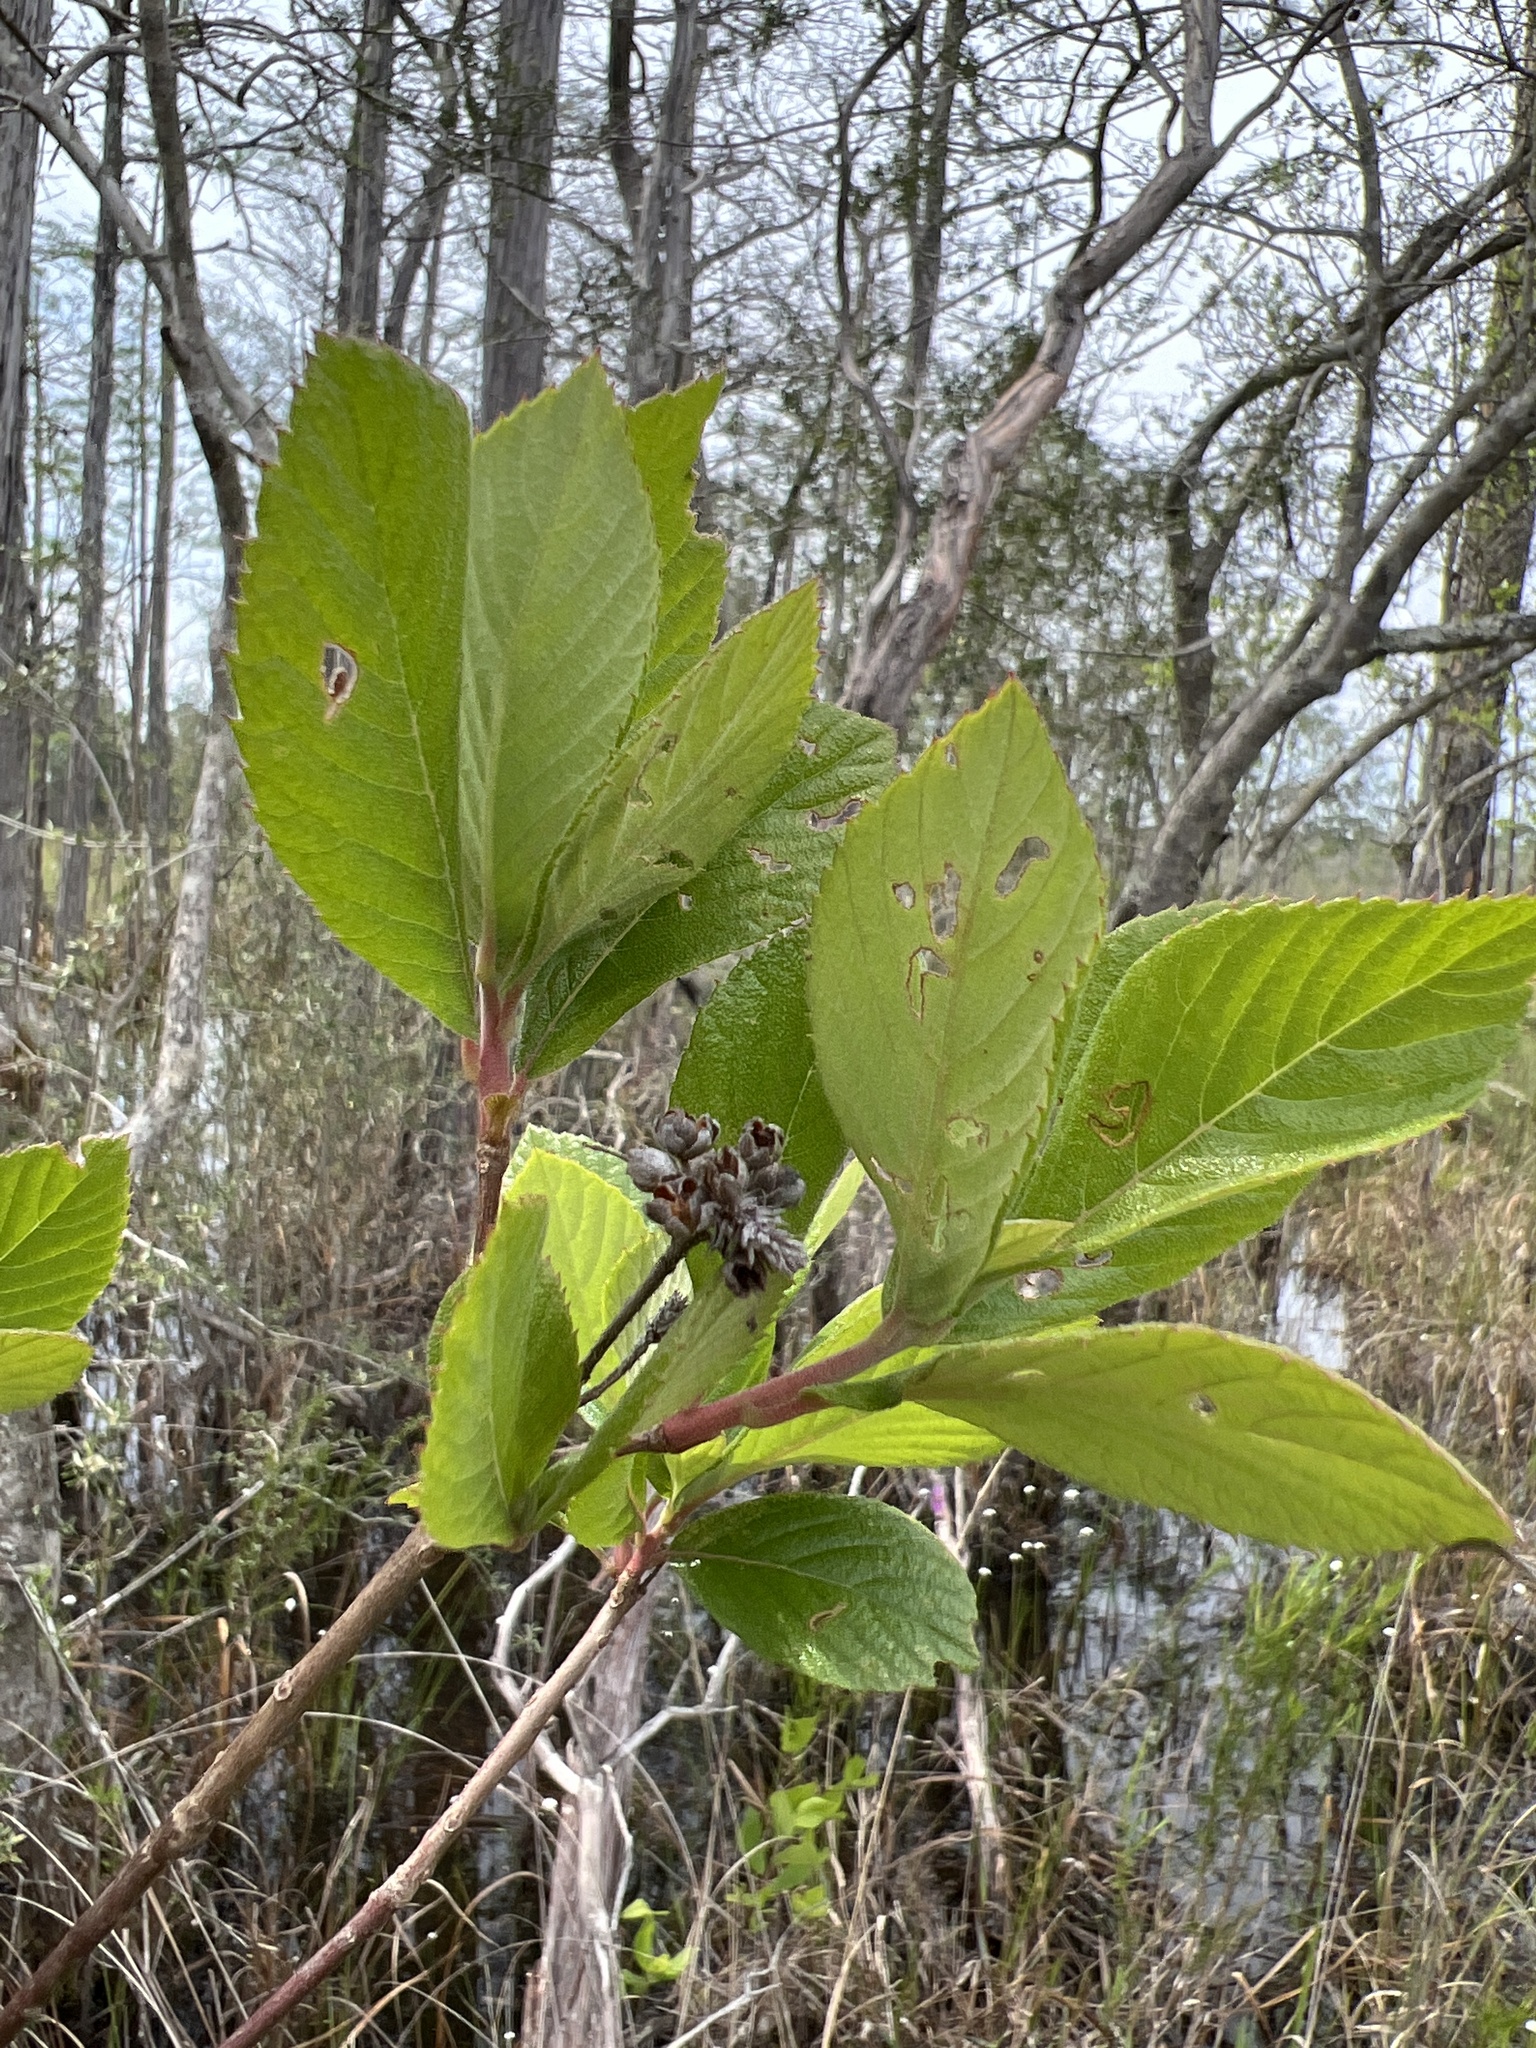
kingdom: Plantae
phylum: Tracheophyta
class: Magnoliopsida
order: Ericales
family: Clethraceae
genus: Clethra
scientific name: Clethra tomentosa
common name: Downy sweet pepperbush
